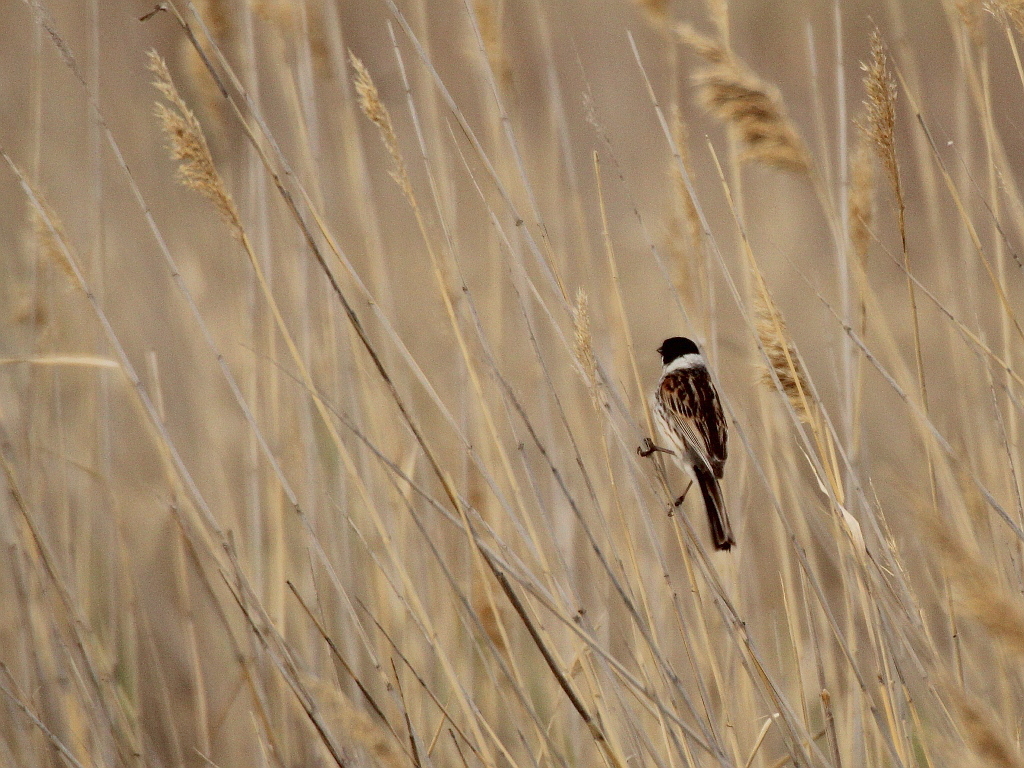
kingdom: Animalia
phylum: Chordata
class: Aves
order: Passeriformes
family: Emberizidae
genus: Emberiza
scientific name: Emberiza schoeniclus
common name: Reed bunting
